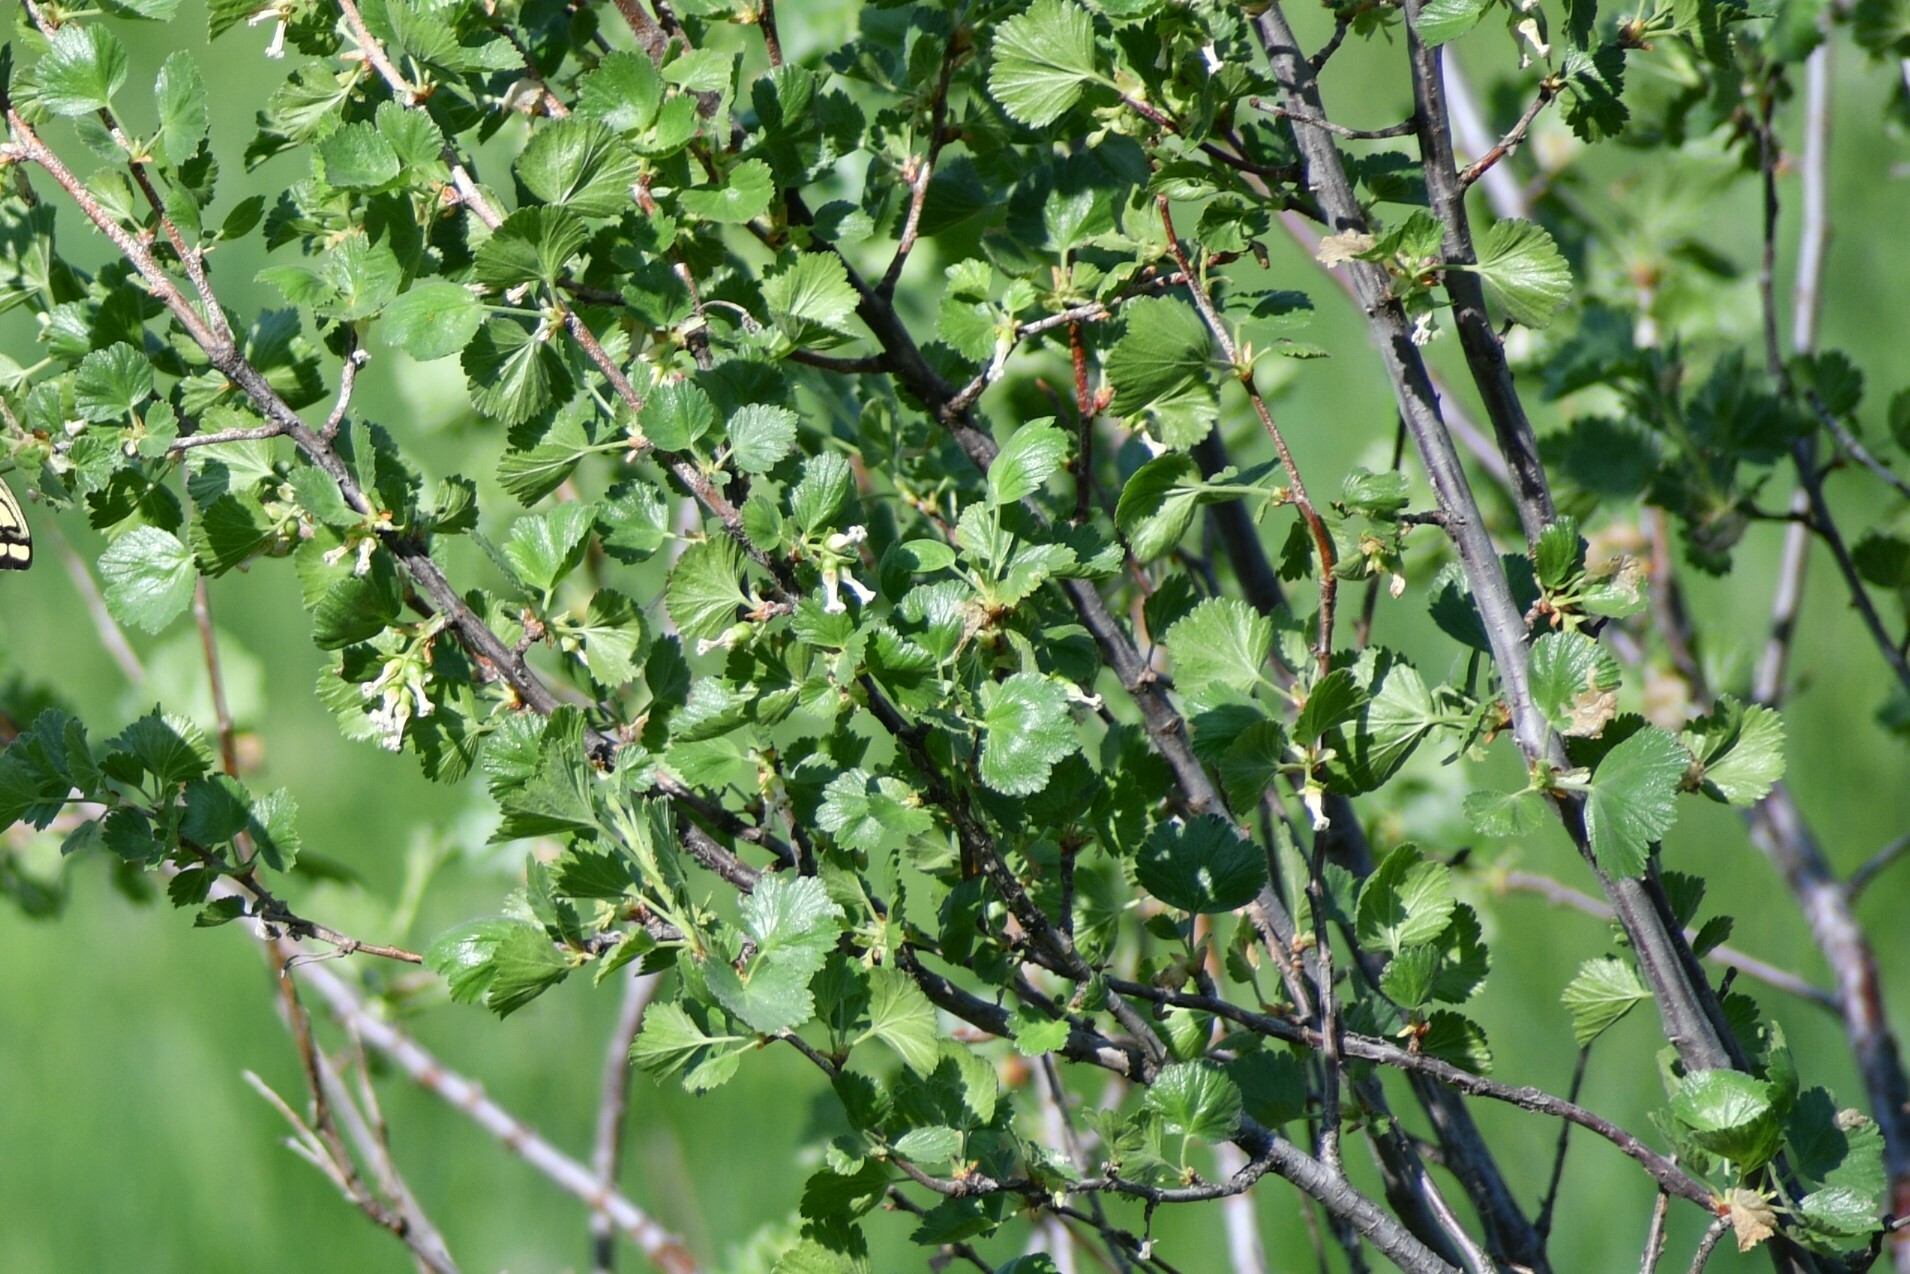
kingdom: Plantae
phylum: Tracheophyta
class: Magnoliopsida
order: Saxifragales
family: Grossulariaceae
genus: Ribes
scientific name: Ribes cereum
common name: Wax currant
